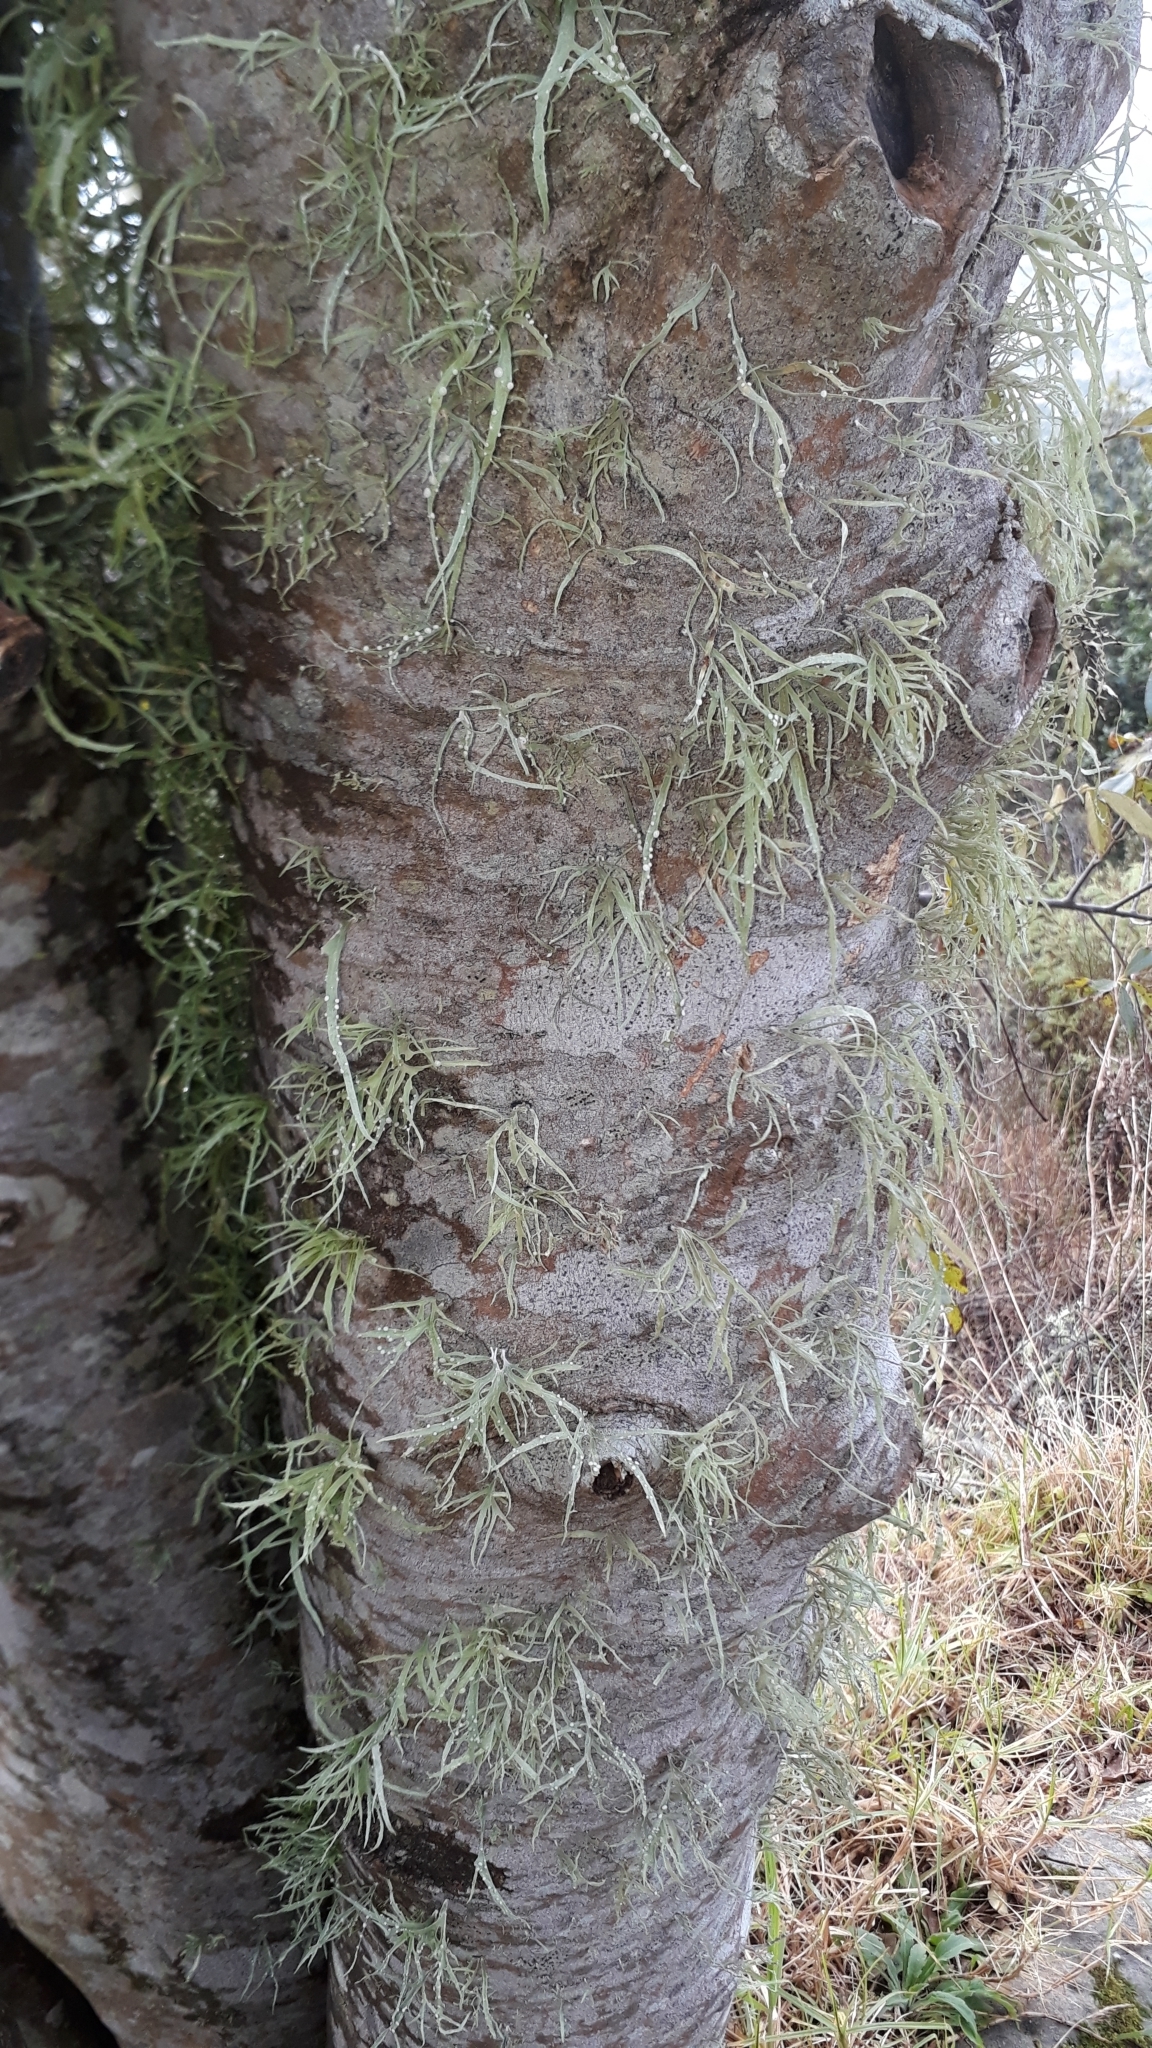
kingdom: Fungi
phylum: Ascomycota
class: Lecanoromycetes
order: Lecanorales
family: Ramalinaceae
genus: Ramalina
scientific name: Ramalina celastri
